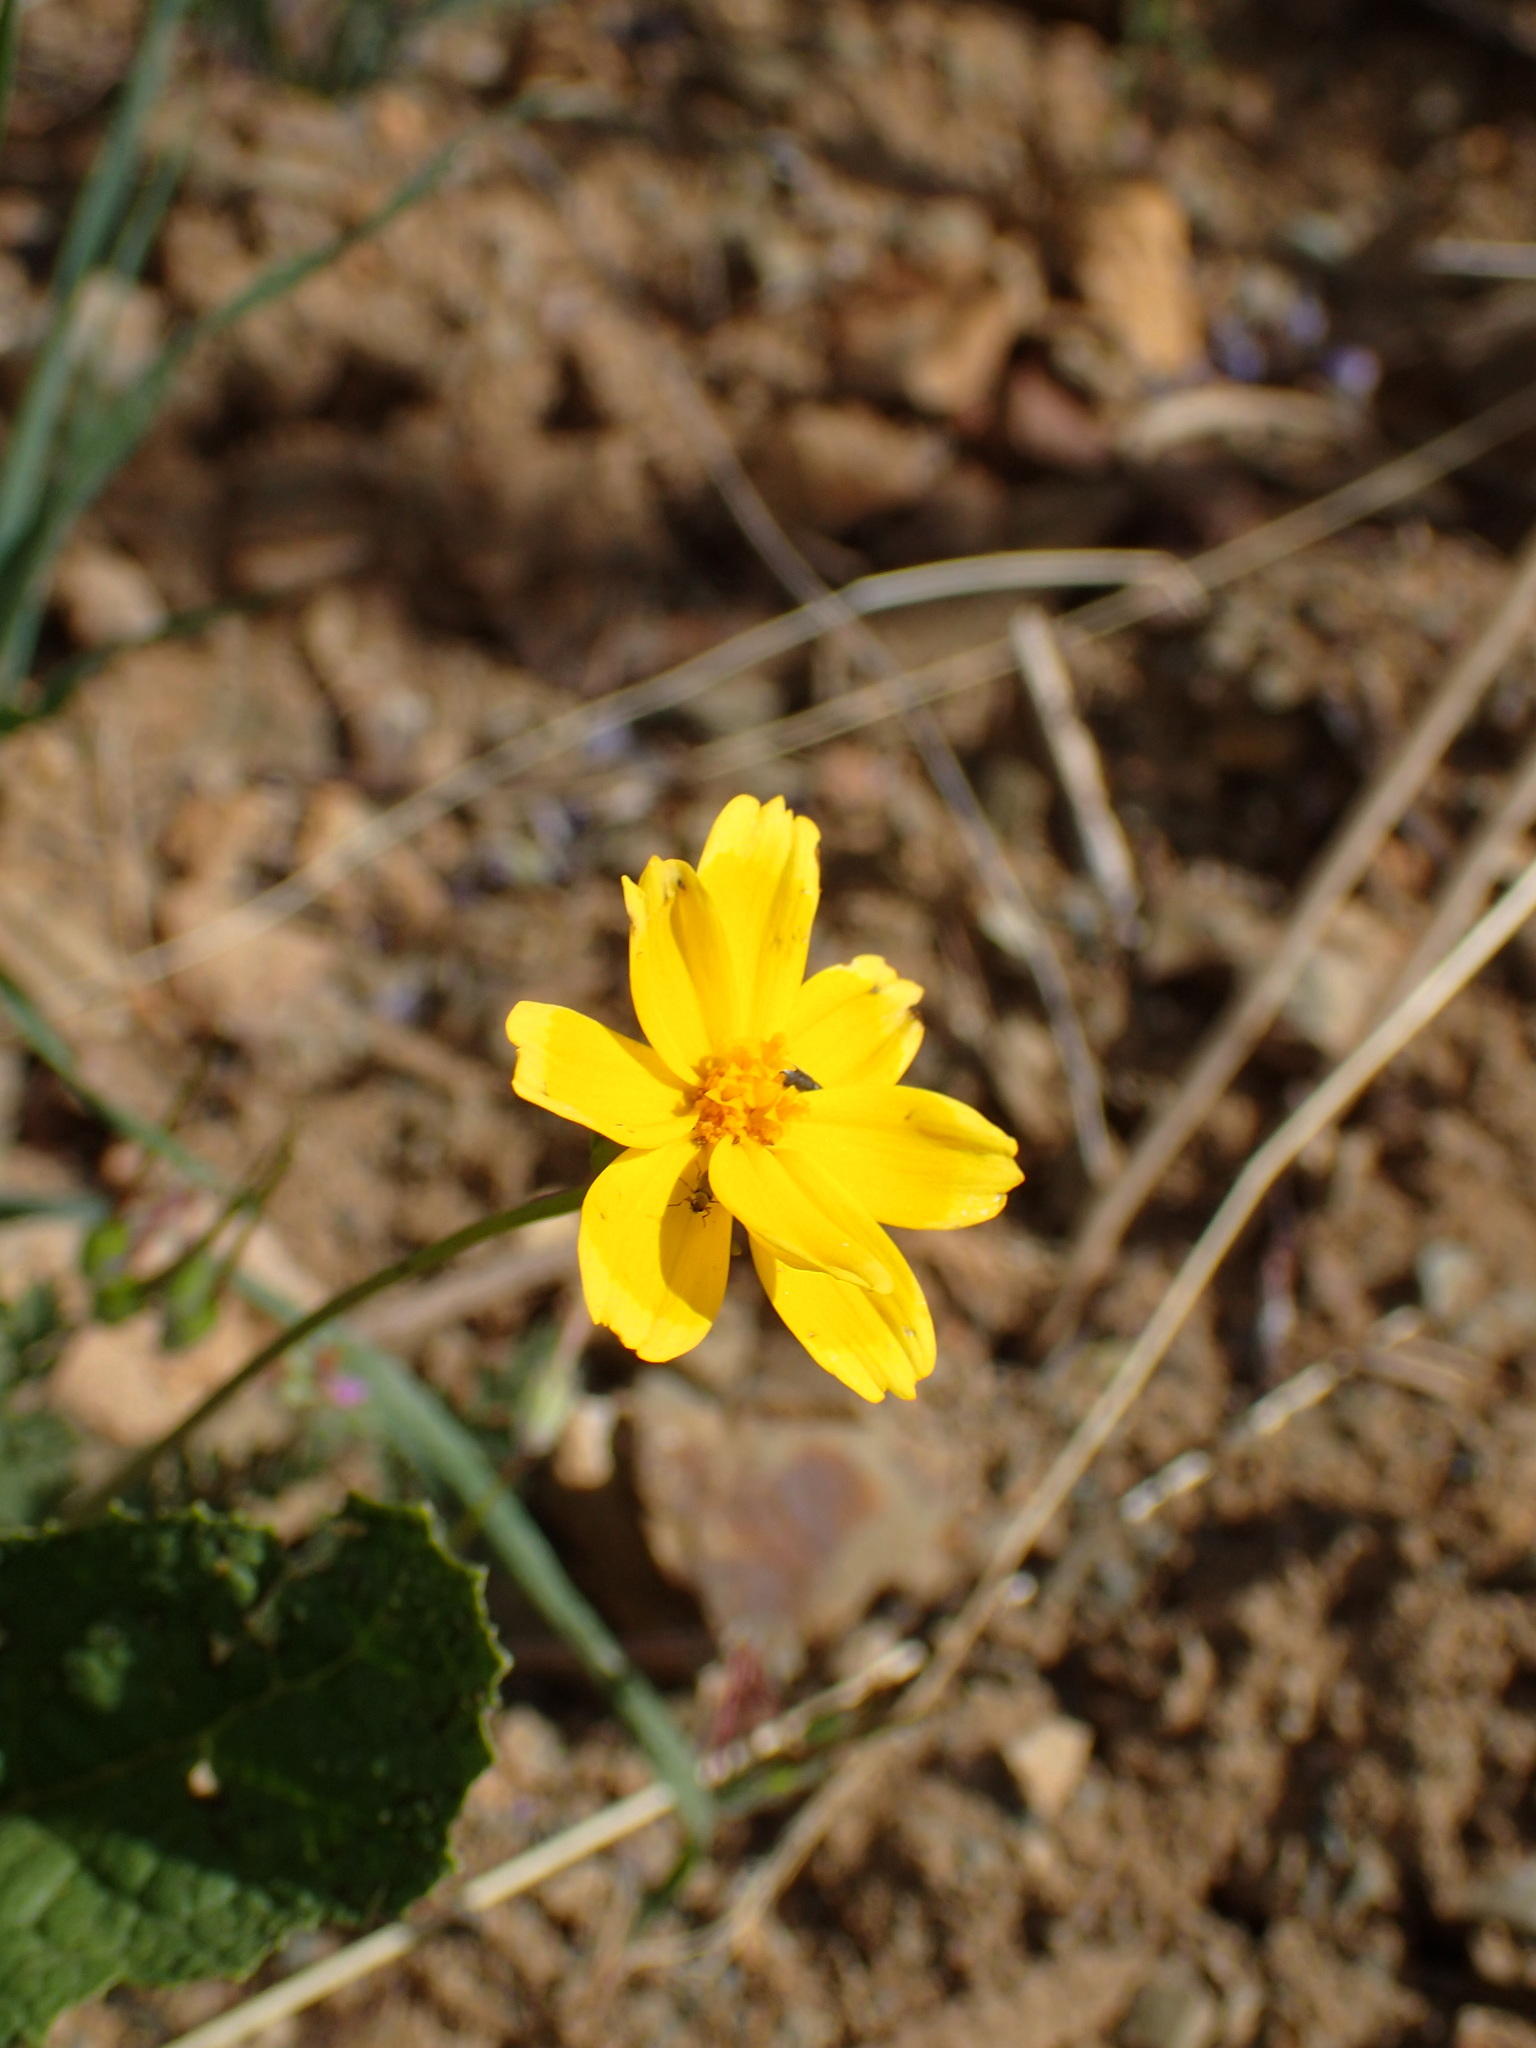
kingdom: Plantae
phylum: Tracheophyta
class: Magnoliopsida
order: Asterales
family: Asteraceae
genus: Coreopsis
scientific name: Coreopsis bigelovii
